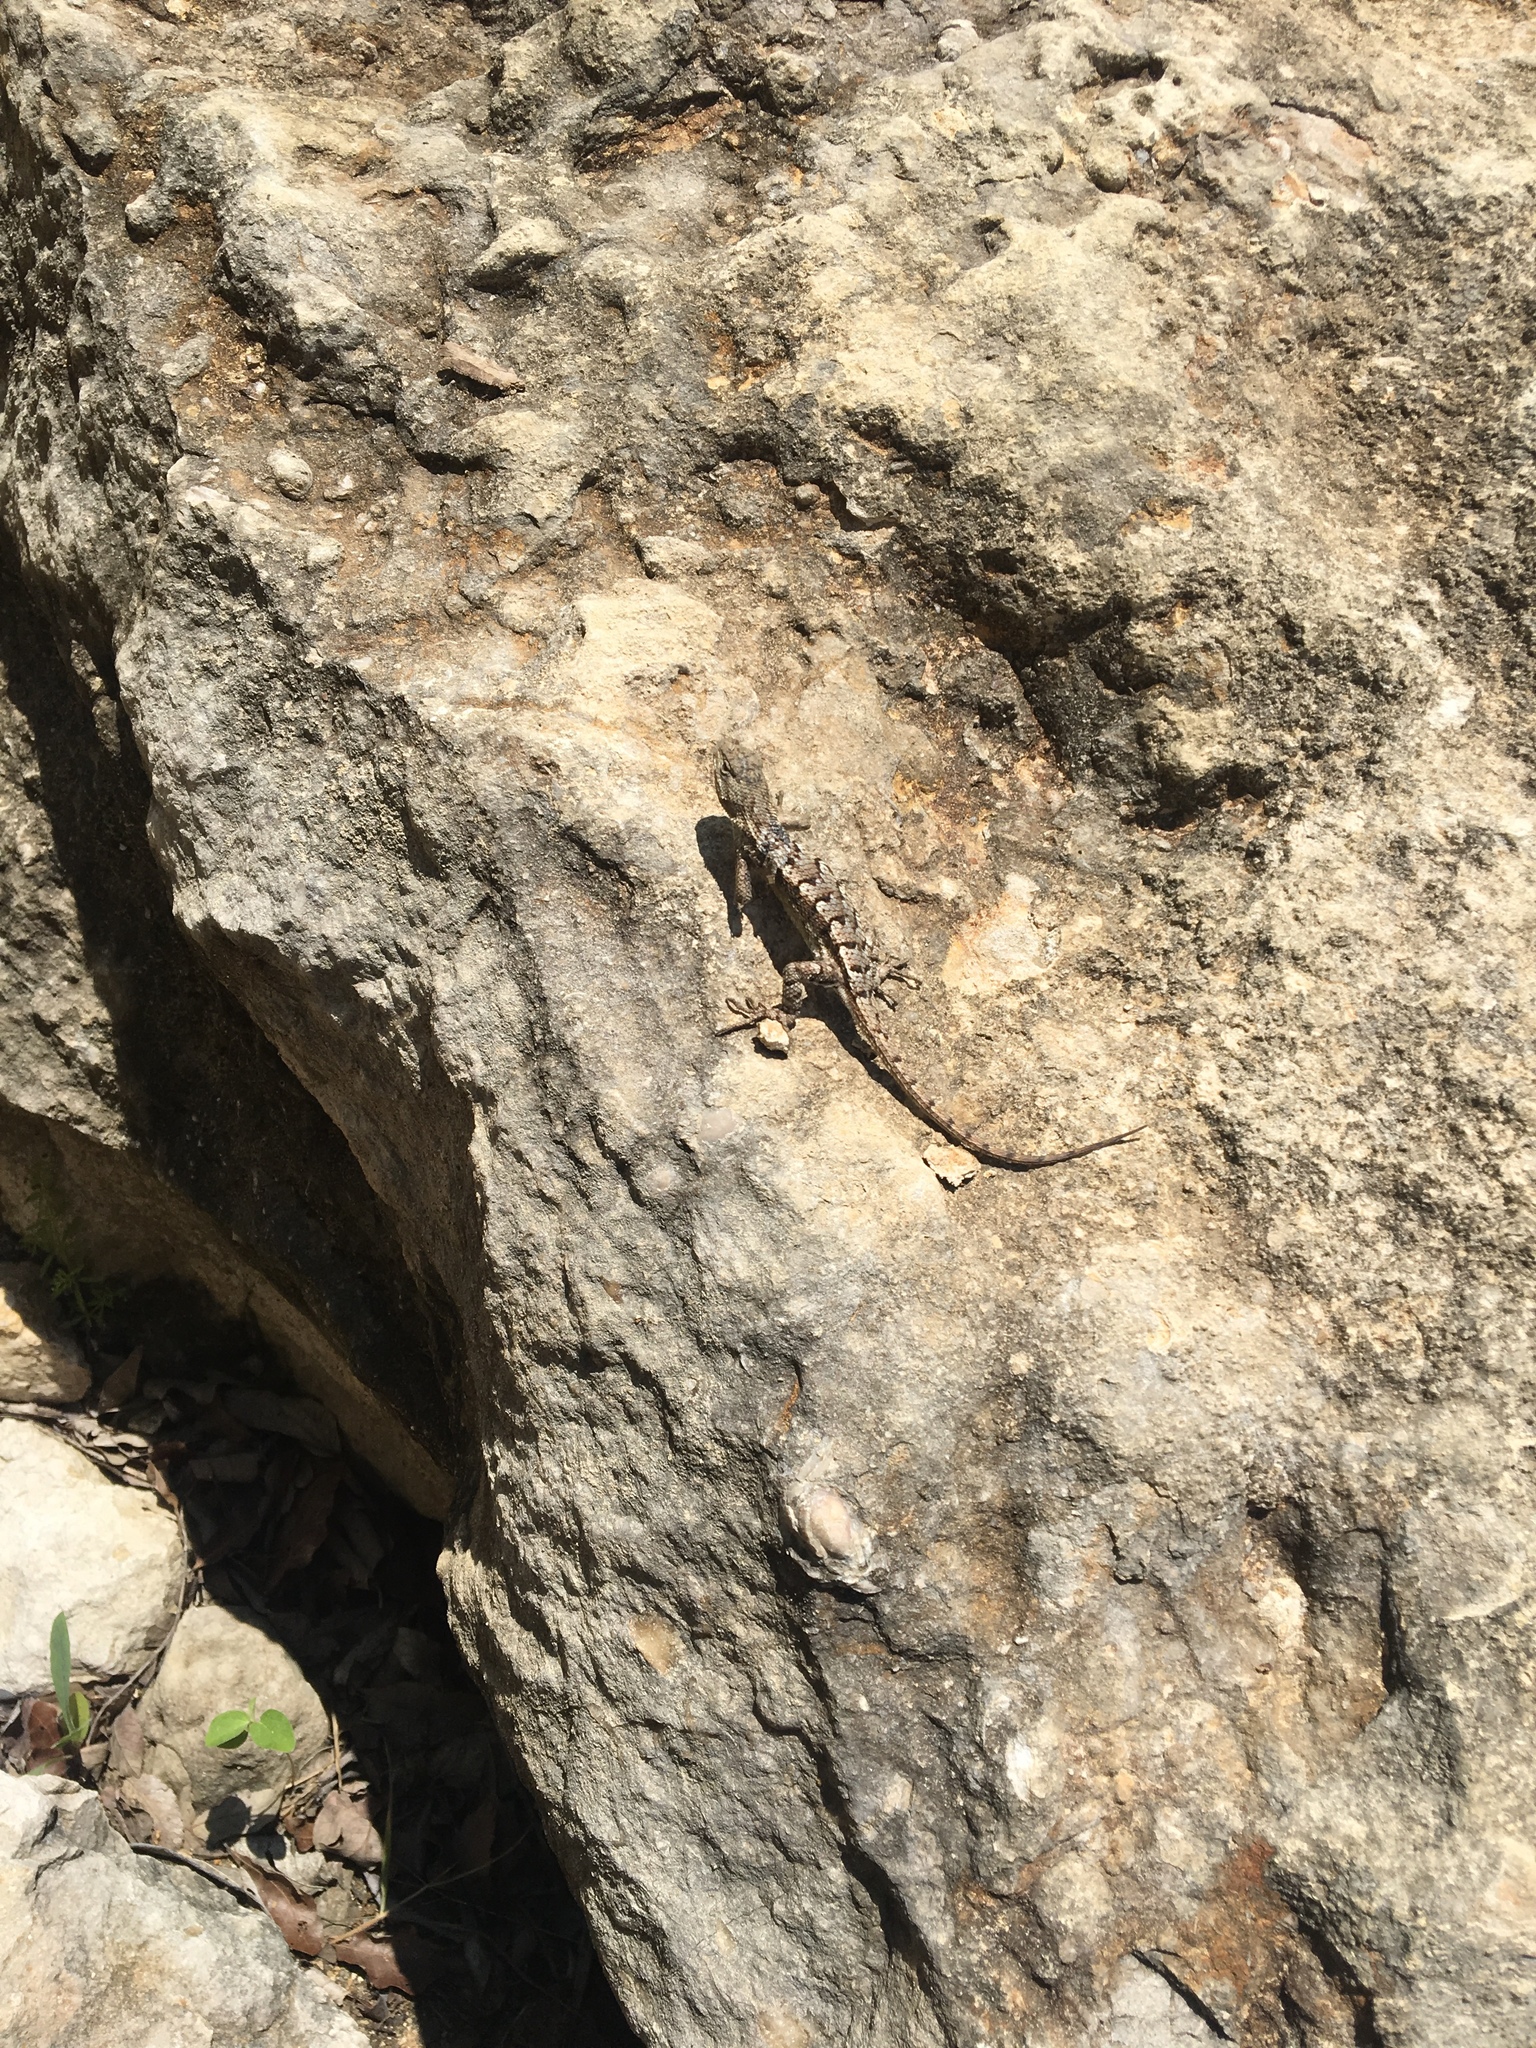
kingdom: Animalia
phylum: Chordata
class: Squamata
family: Phrynosomatidae
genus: Sceloporus
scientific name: Sceloporus consobrinus
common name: Southern prairie lizard
